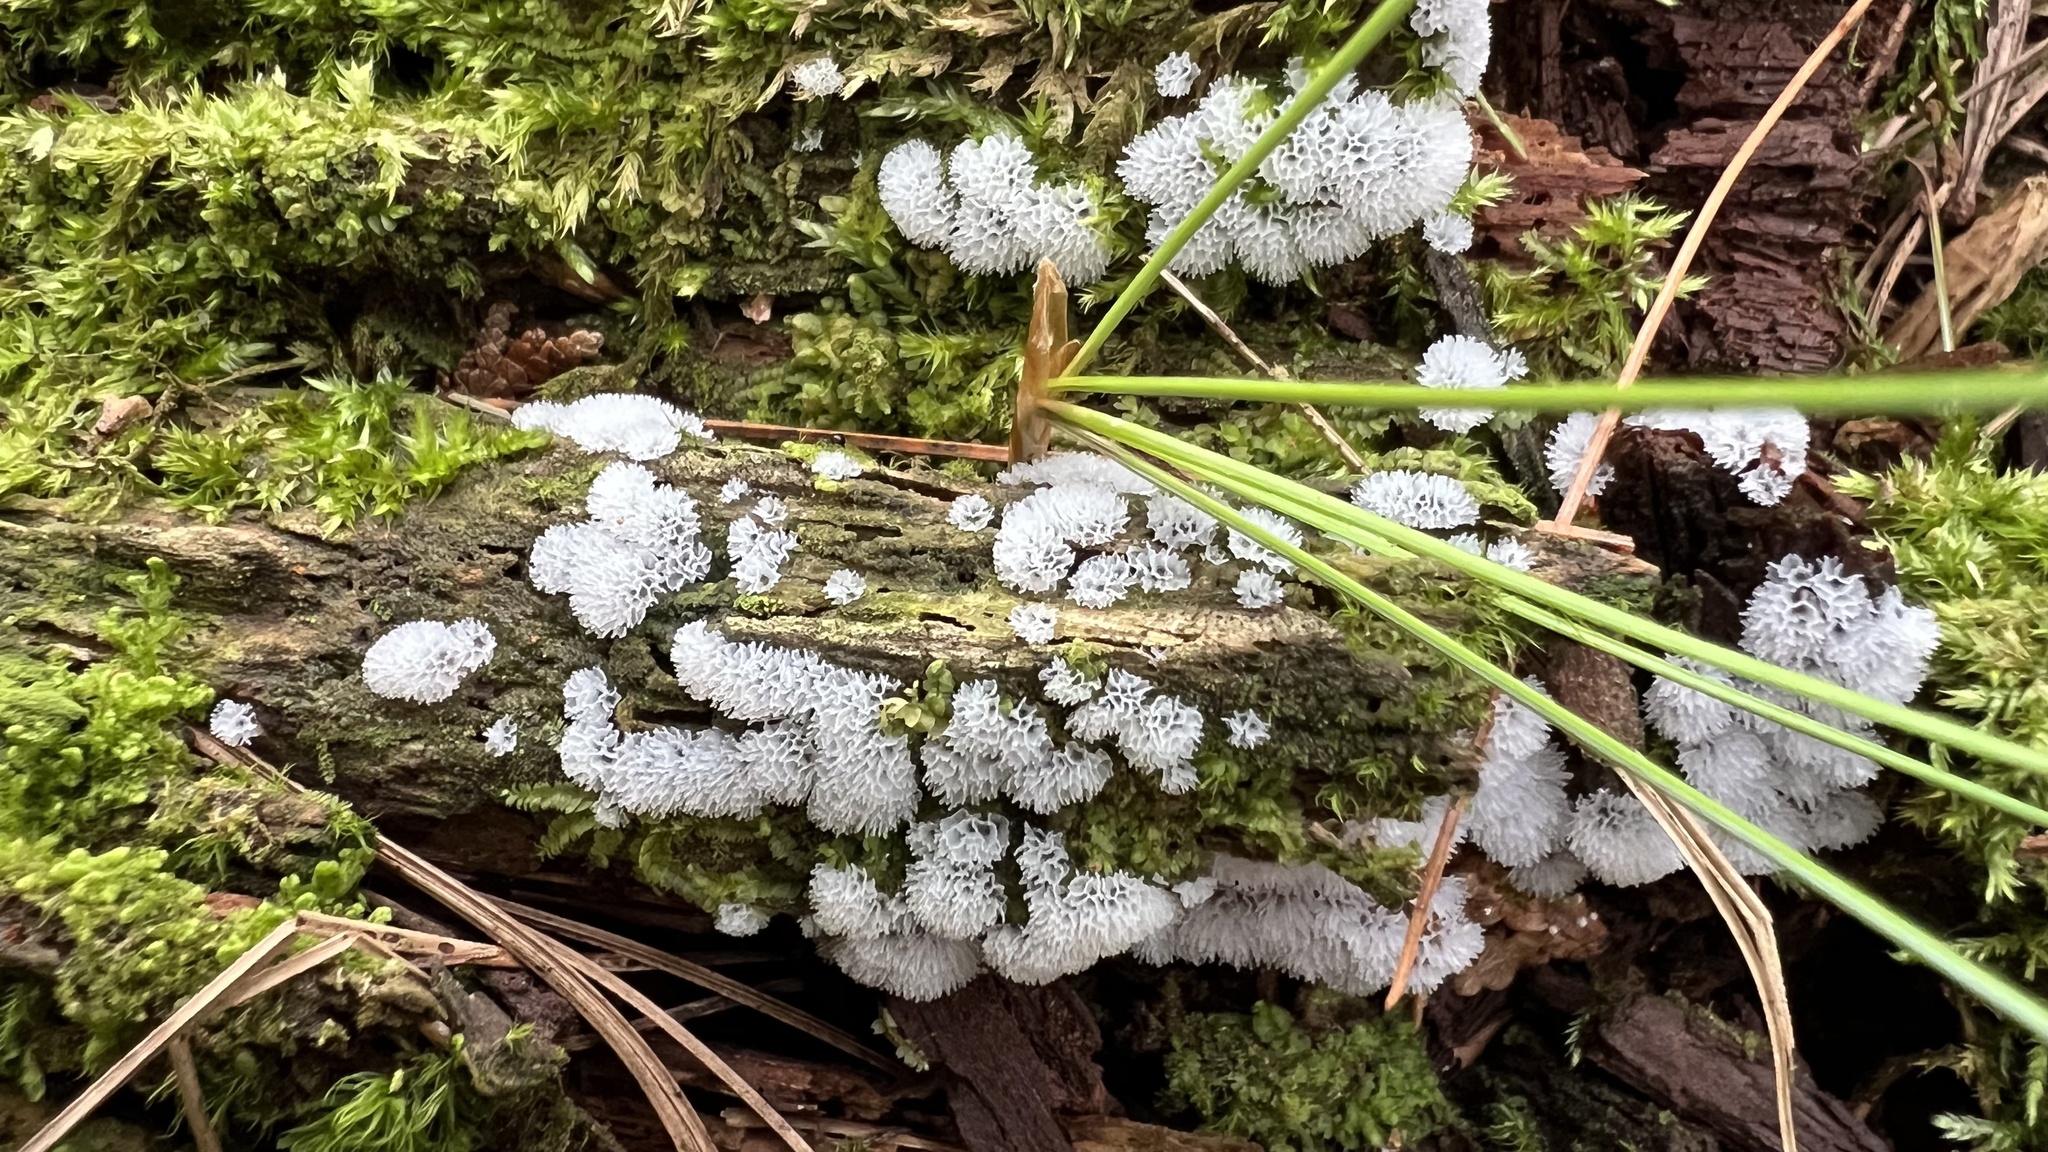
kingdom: Protozoa
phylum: Mycetozoa
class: Protosteliomycetes
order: Ceratiomyxales
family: Ceratiomyxaceae
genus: Ceratiomyxa
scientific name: Ceratiomyxa fruticulosa
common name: Honeycomb coral slime mold
